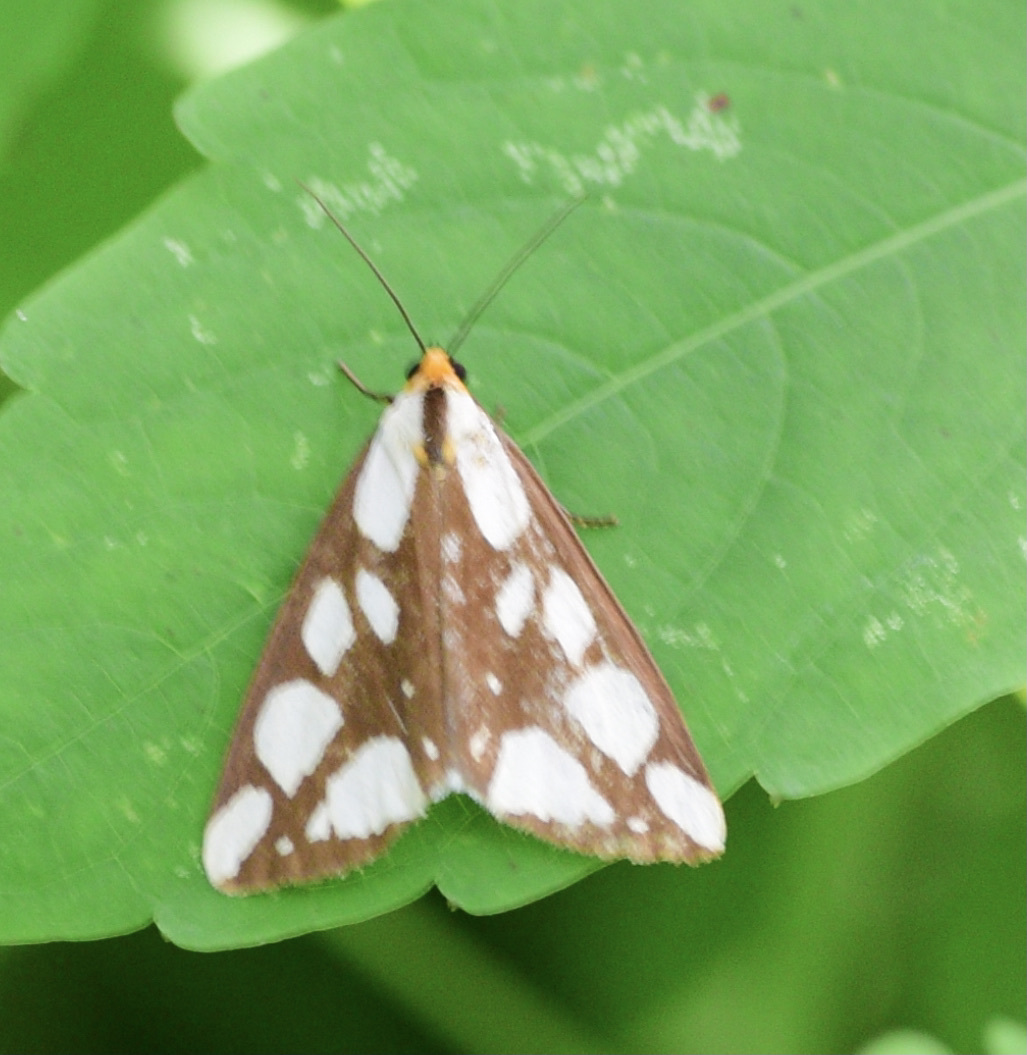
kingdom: Animalia
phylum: Arthropoda
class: Insecta
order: Lepidoptera
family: Erebidae
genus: Haploa
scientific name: Haploa confusa
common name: Confused haploa moth
